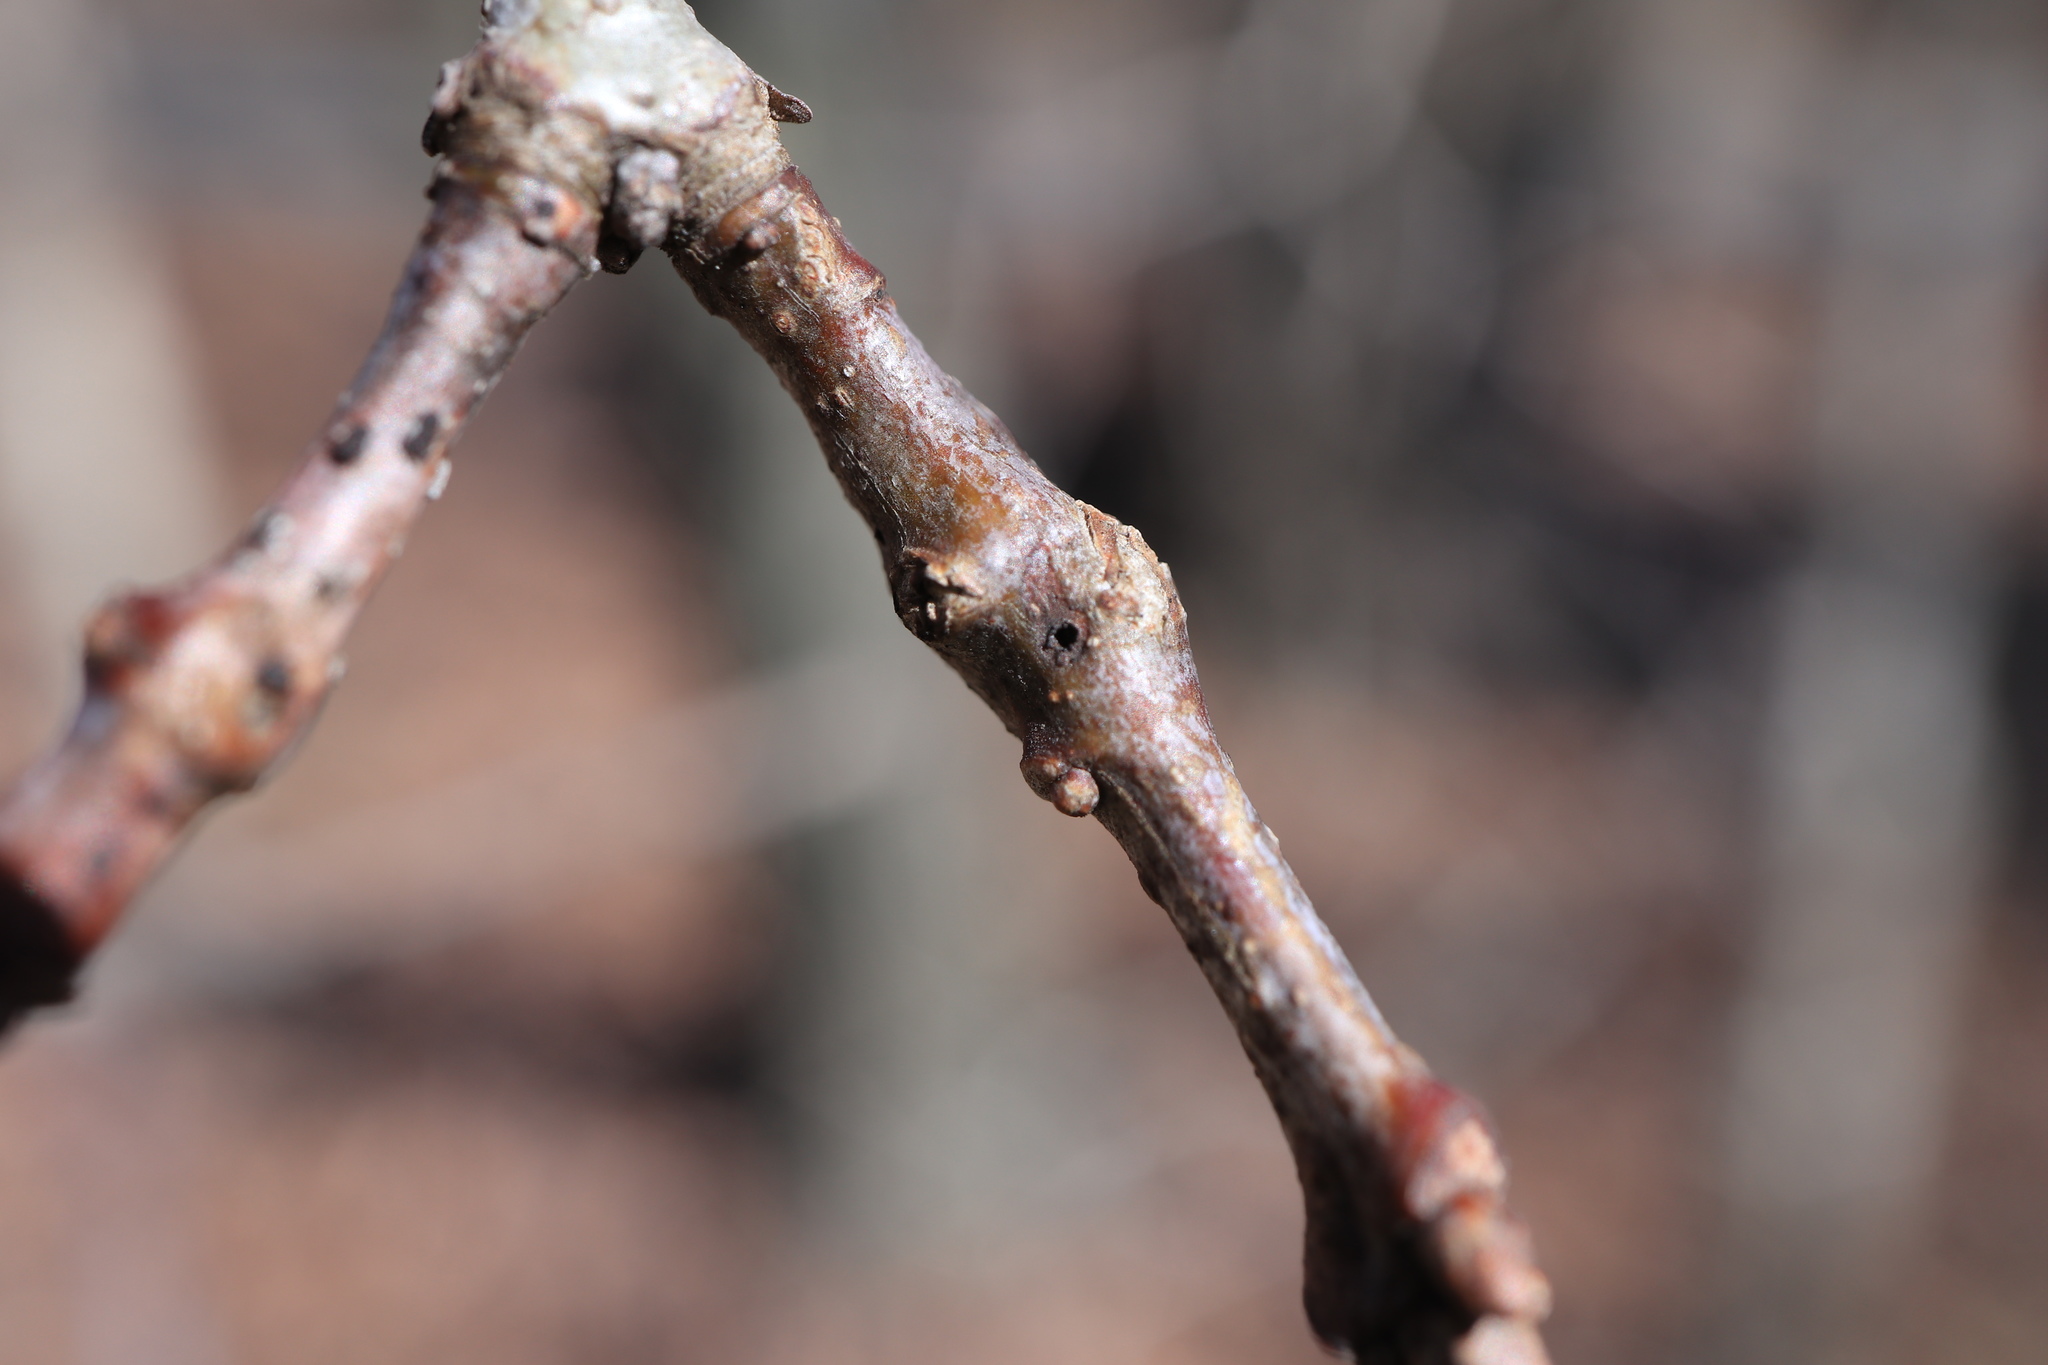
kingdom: Animalia
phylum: Arthropoda
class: Insecta
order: Hymenoptera
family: Cynipidae
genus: Callirhytis
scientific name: Callirhytis
